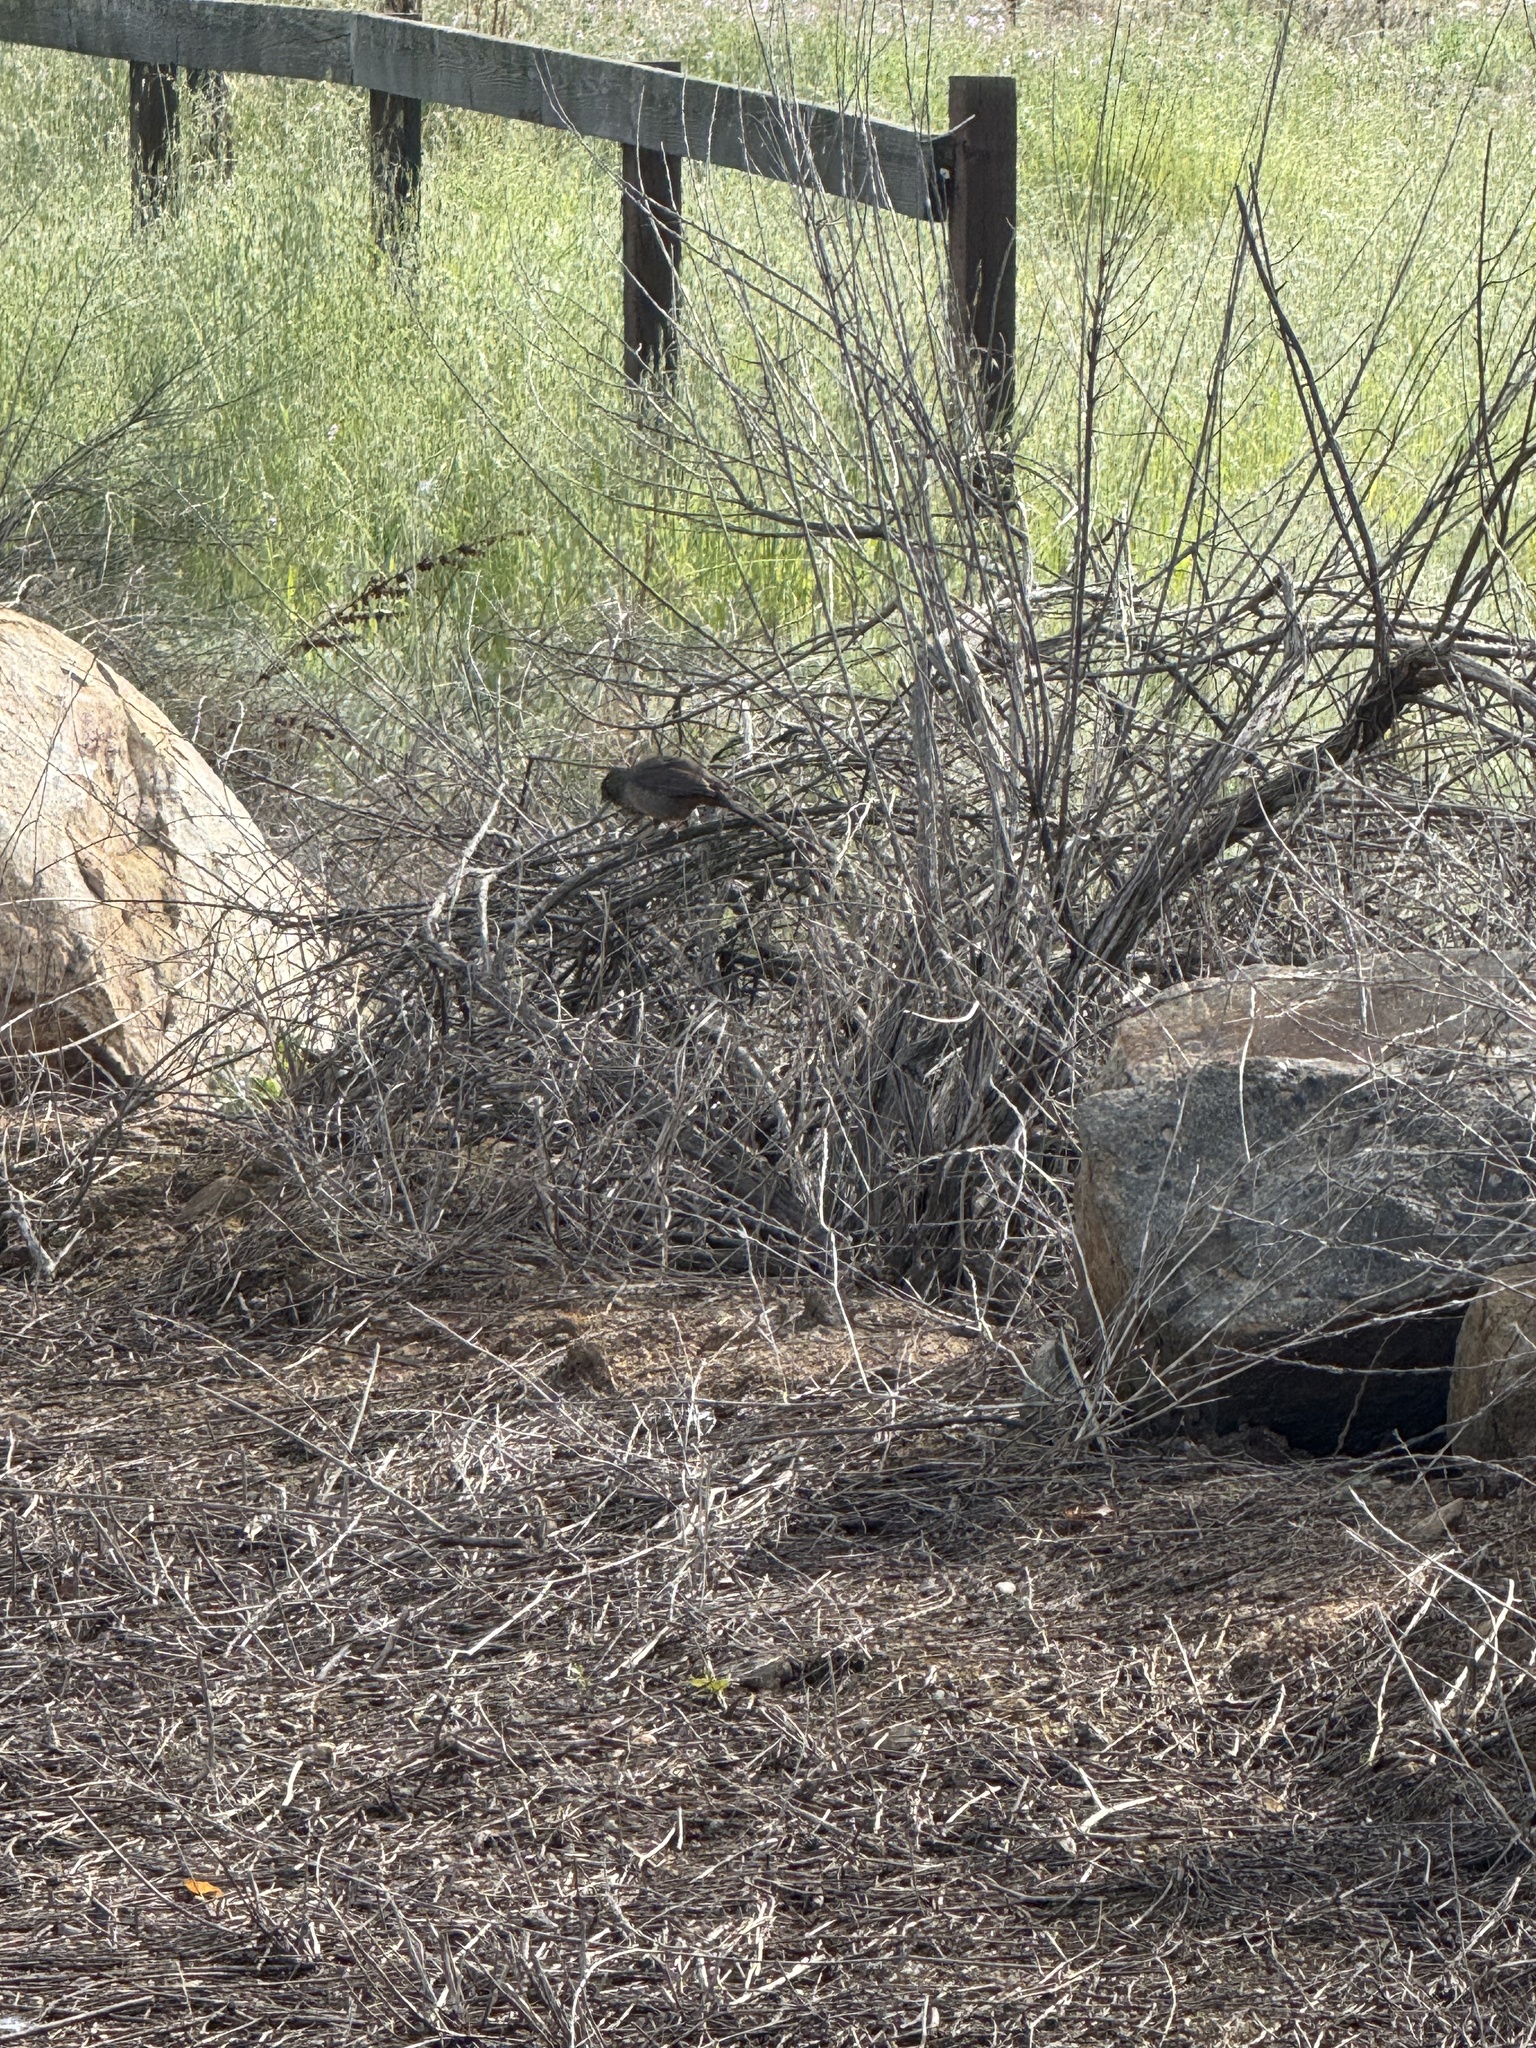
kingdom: Animalia
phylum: Chordata
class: Aves
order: Passeriformes
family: Passerellidae
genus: Melozone
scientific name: Melozone crissalis
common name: California towhee
